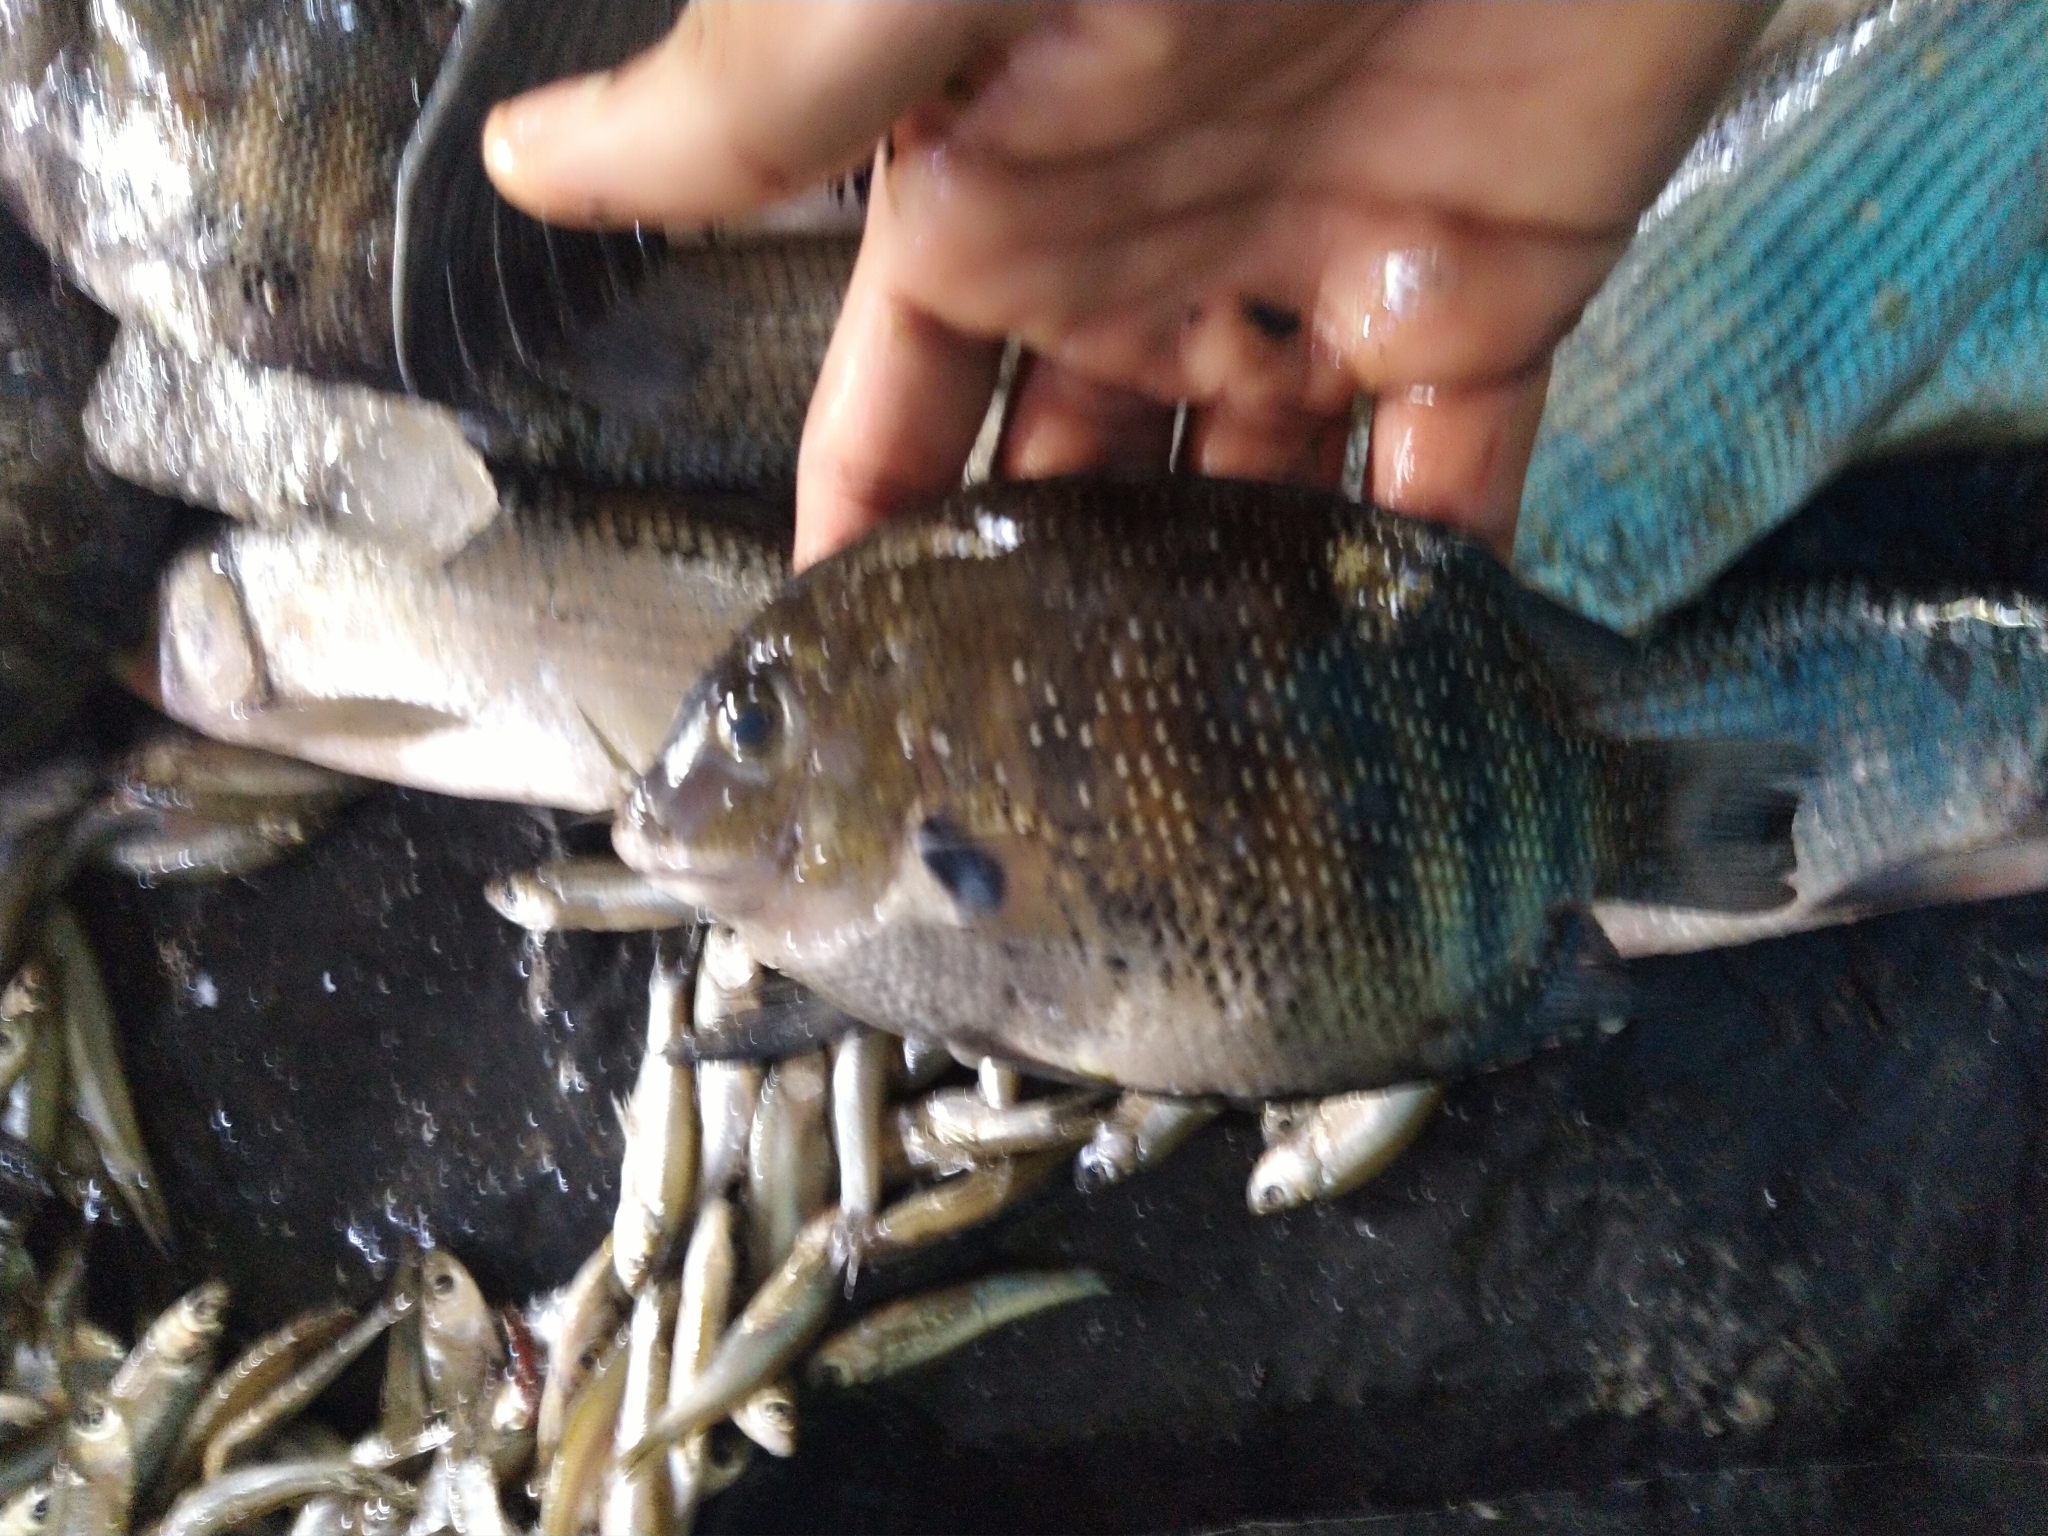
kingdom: Animalia
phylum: Chordata
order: Perciformes
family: Cichlidae
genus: Etroplus
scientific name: Etroplus suratensis
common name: Green chromide
